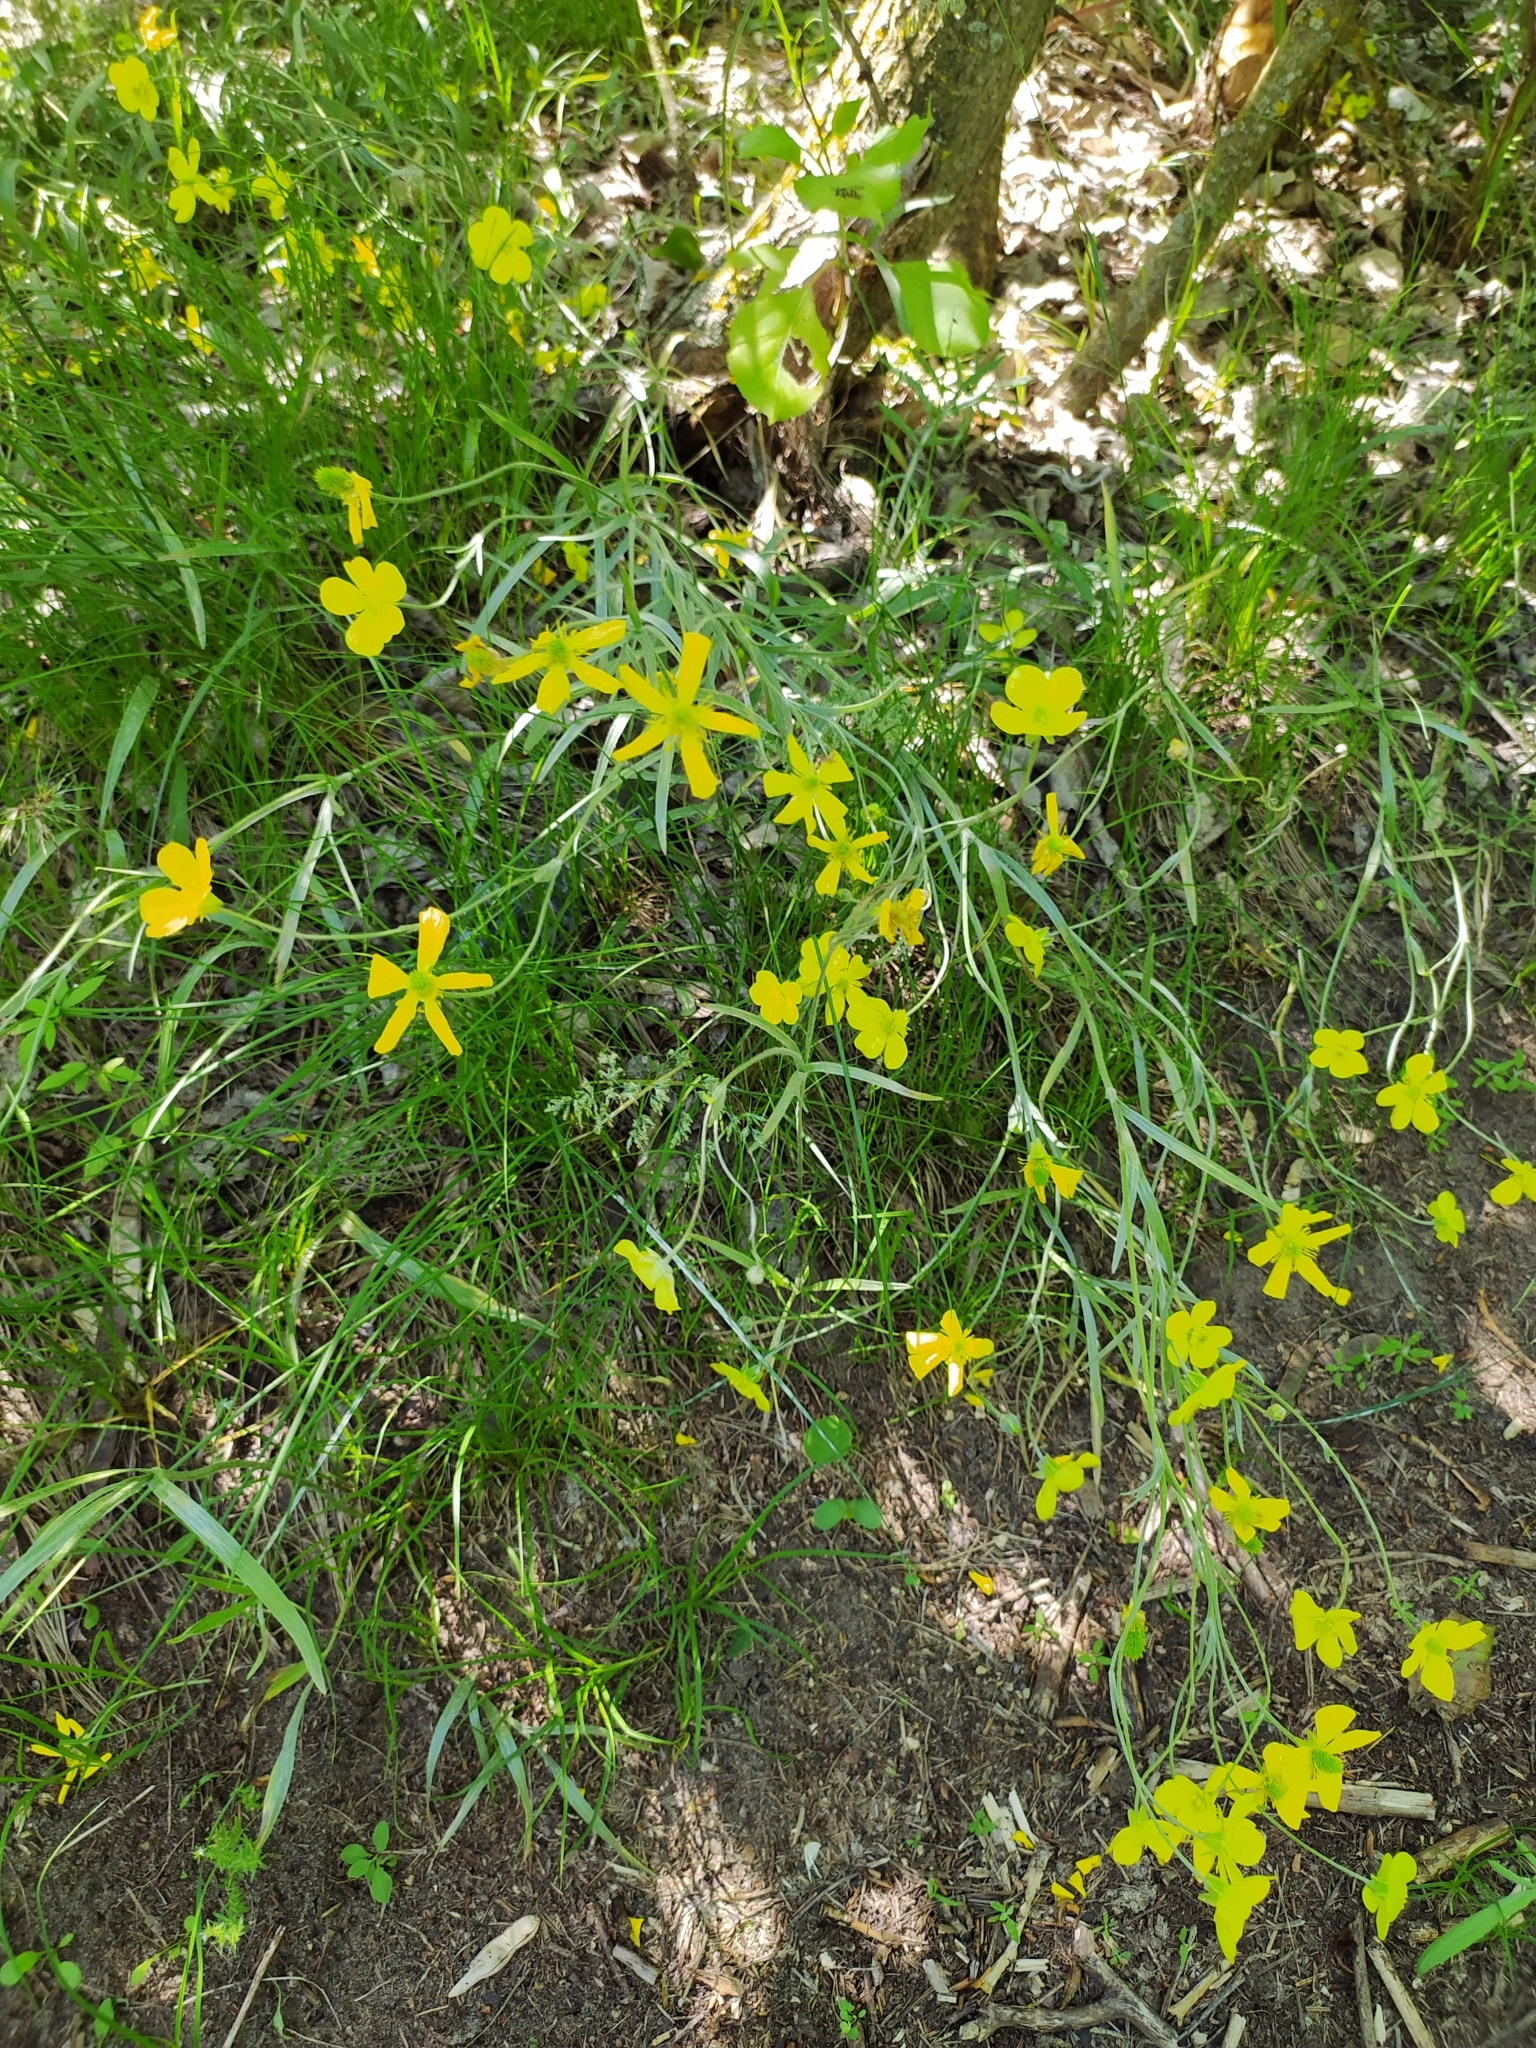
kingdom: Plantae
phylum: Tracheophyta
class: Magnoliopsida
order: Ranunculales
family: Ranunculaceae
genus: Ranunculus
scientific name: Ranunculus illyricus
